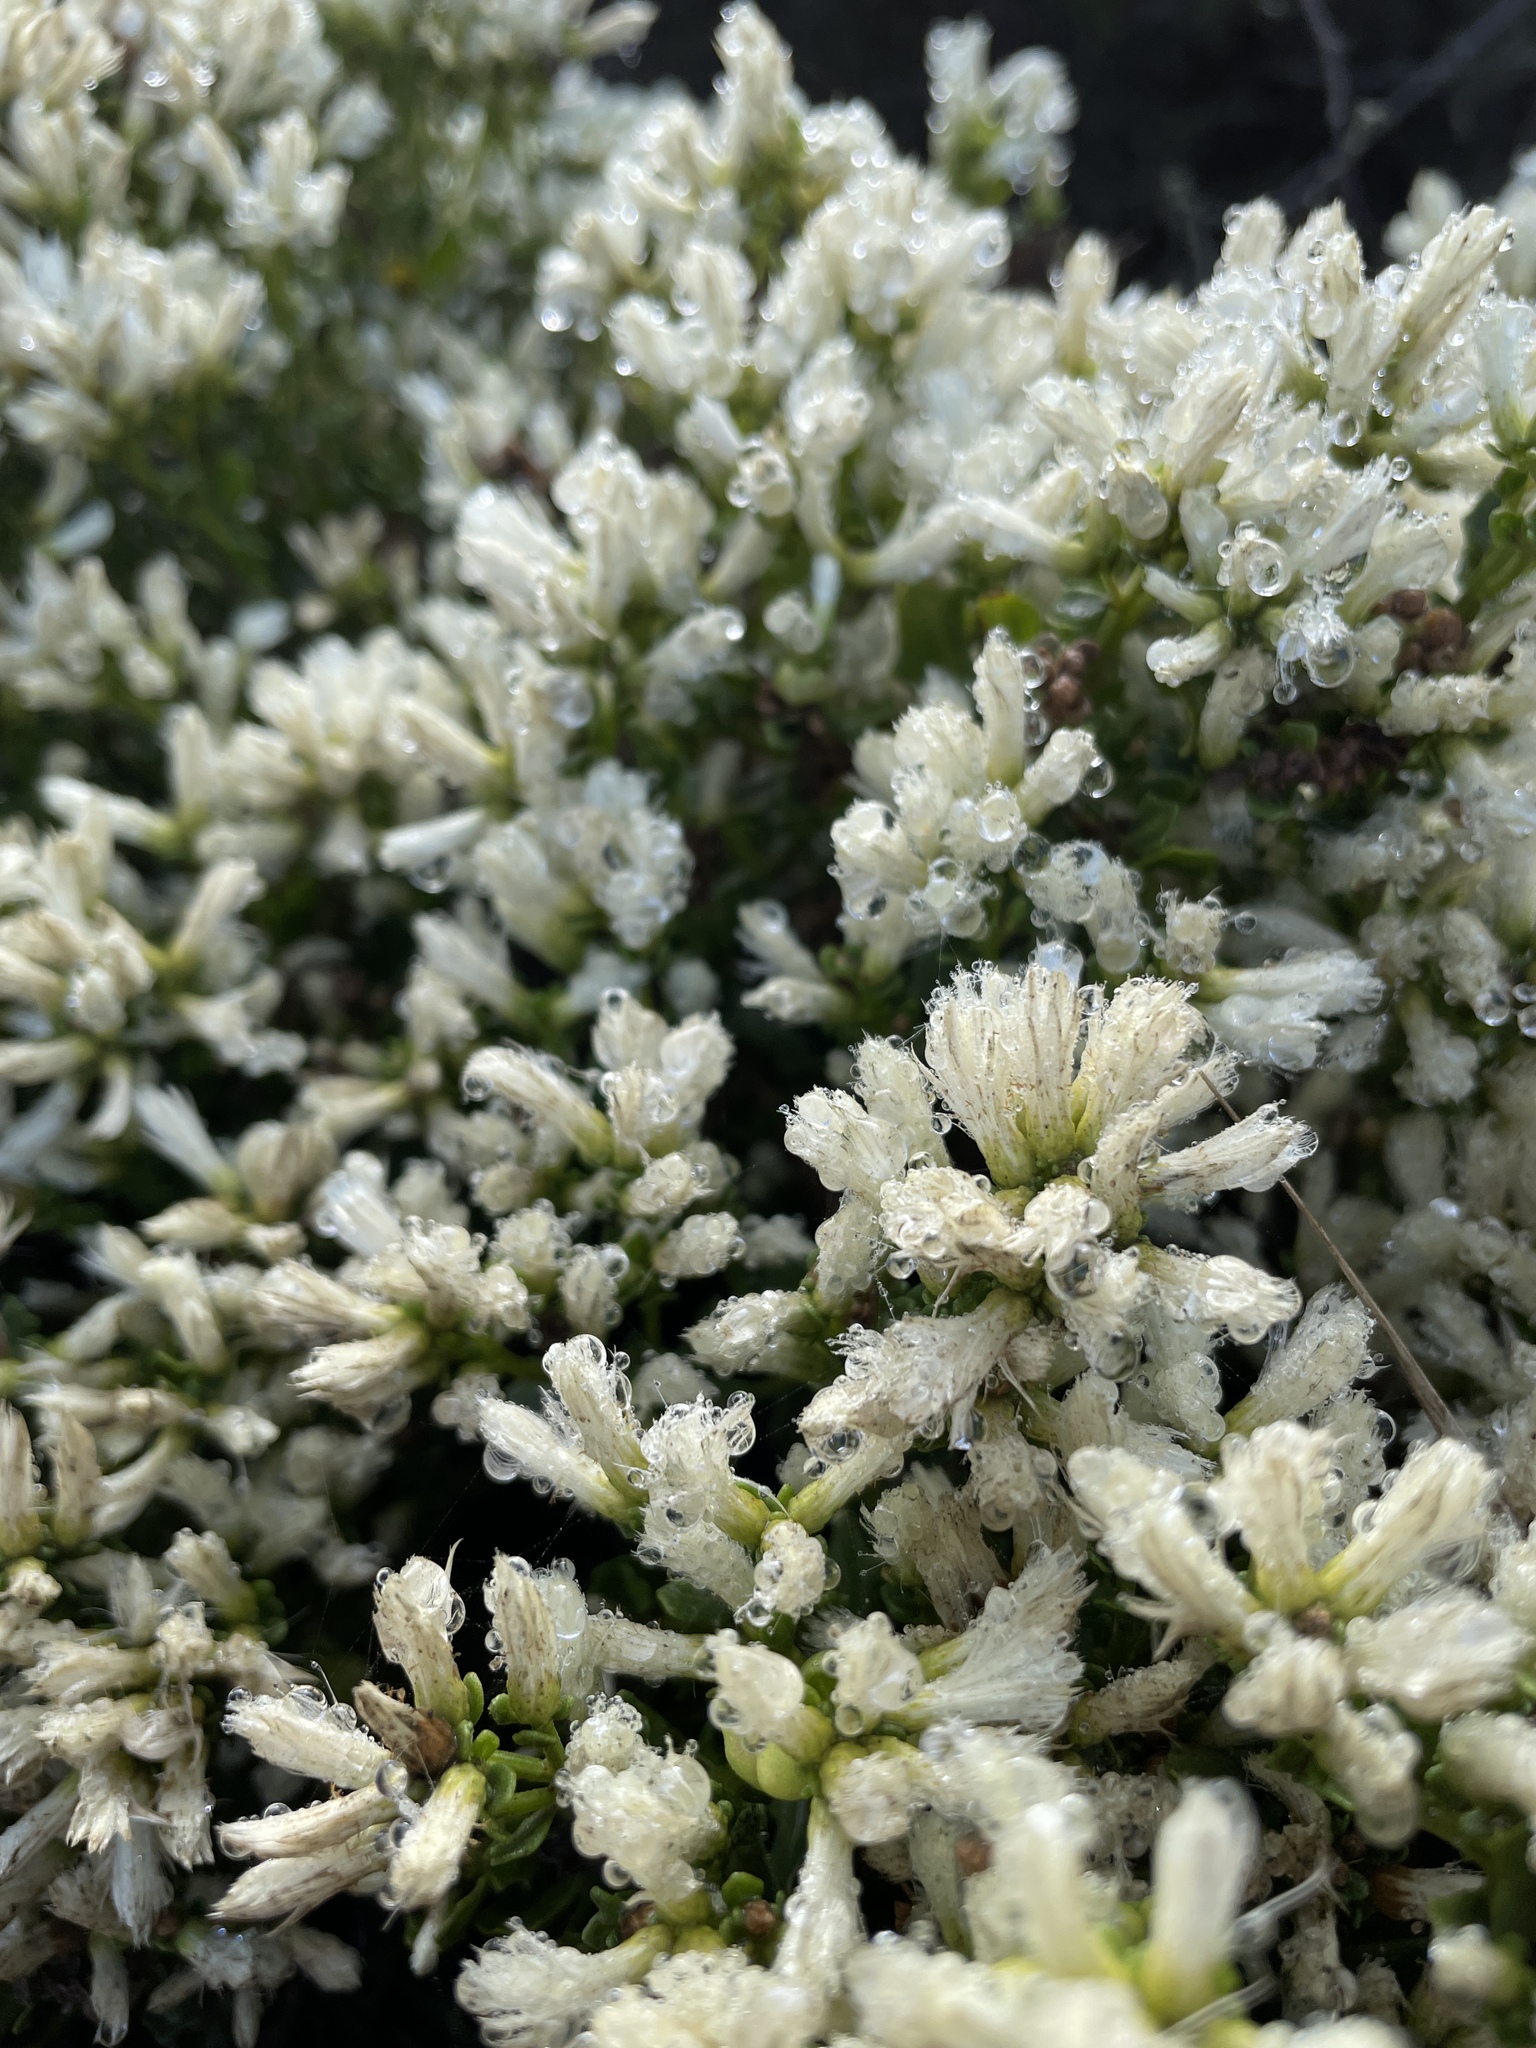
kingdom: Plantae
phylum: Tracheophyta
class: Magnoliopsida
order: Asterales
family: Asteraceae
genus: Baccharis
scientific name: Baccharis pilularis
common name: Coyotebrush
